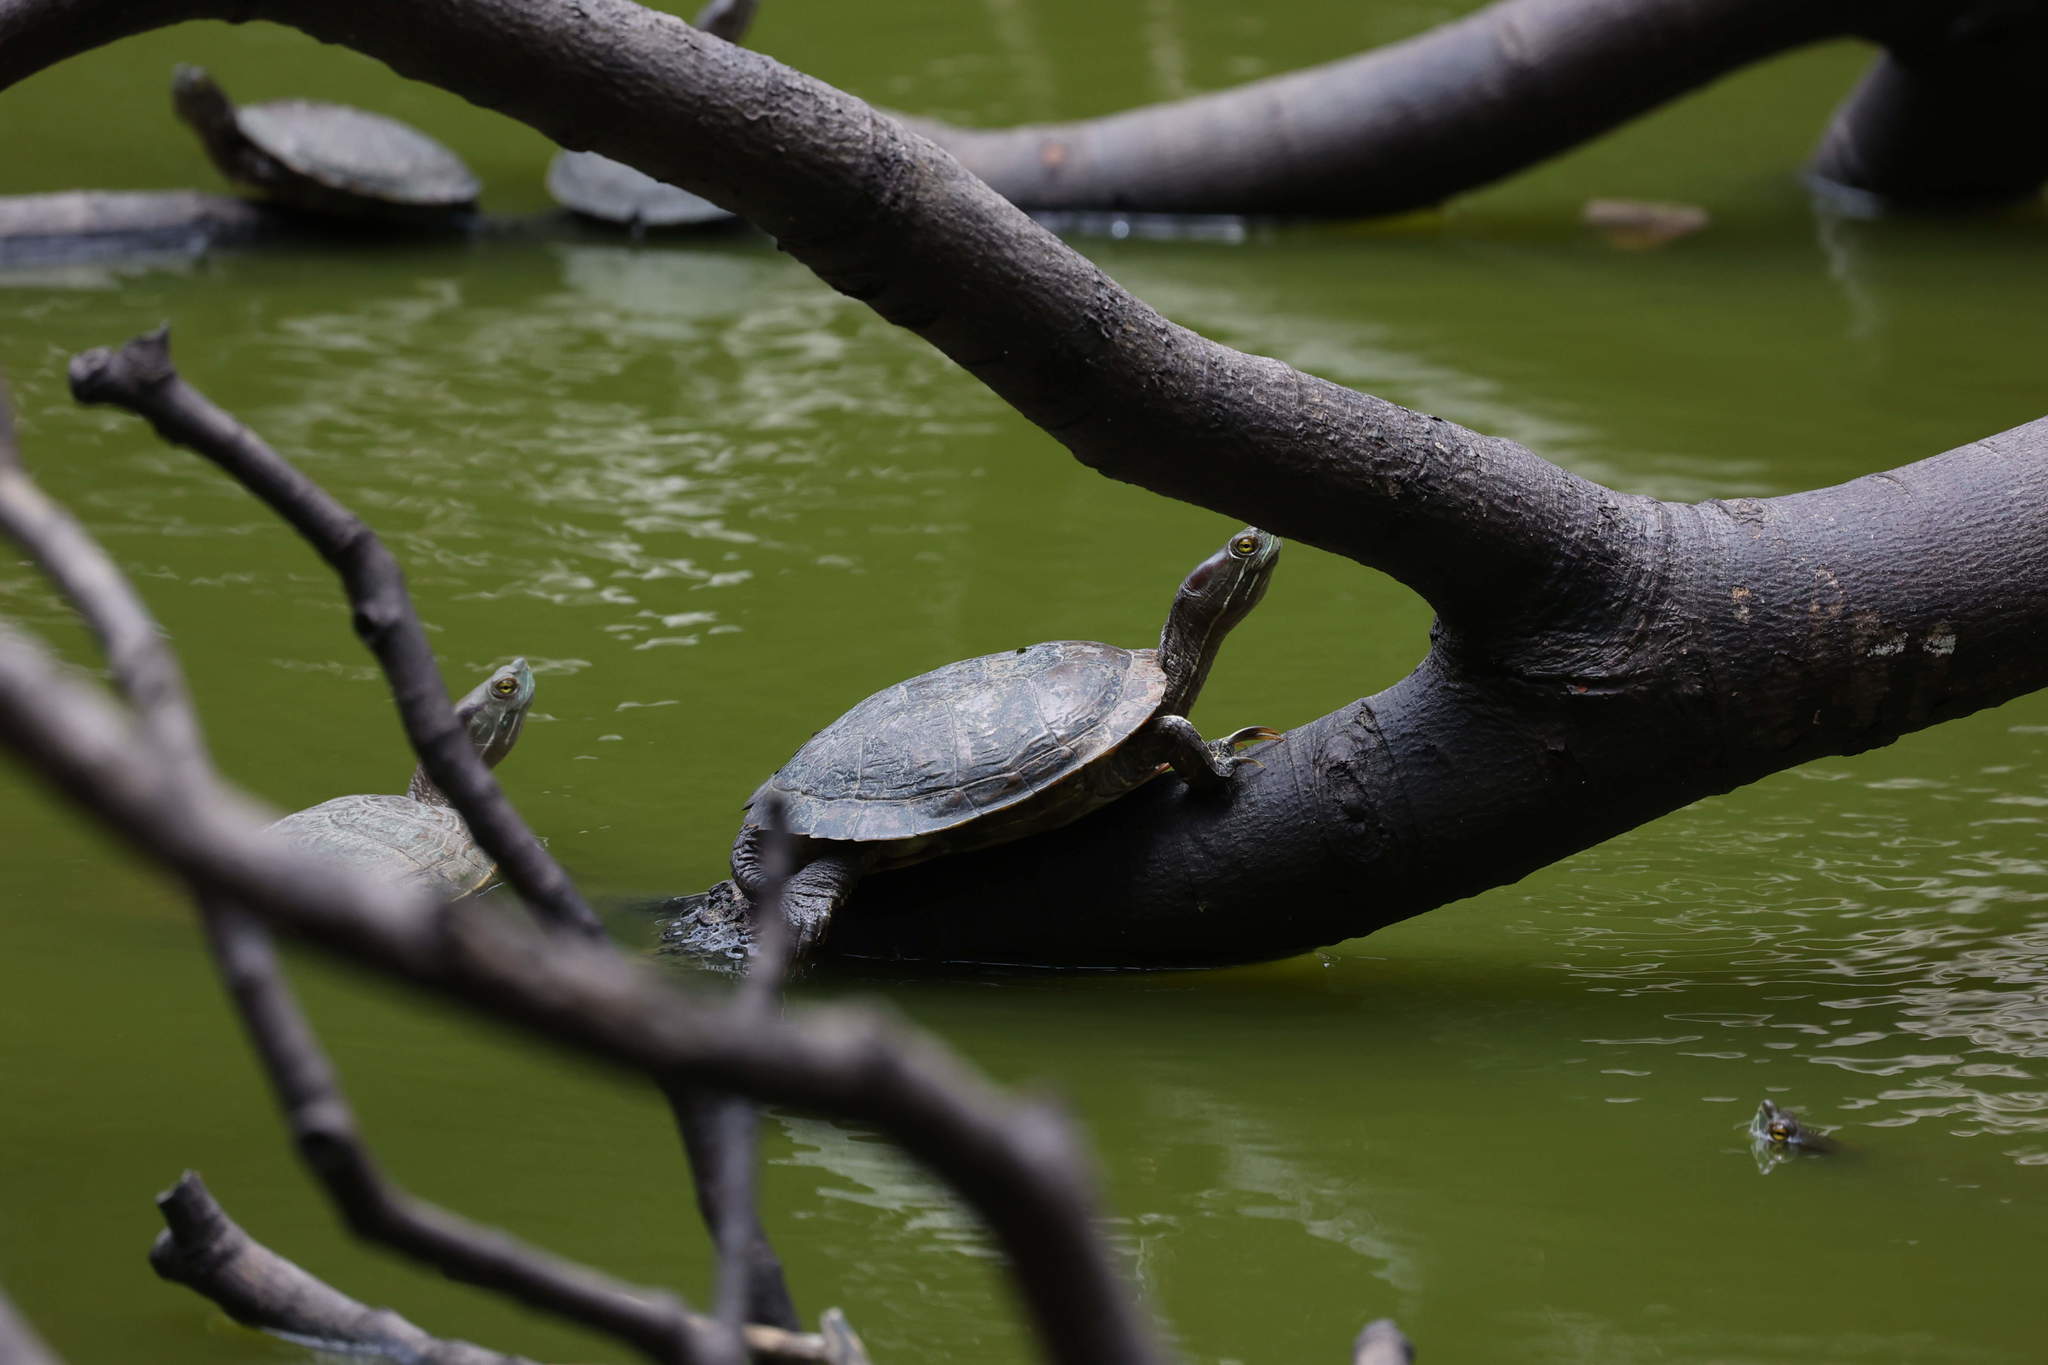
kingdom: Animalia
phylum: Chordata
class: Testudines
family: Emydidae
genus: Trachemys
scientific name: Trachemys stejnegeri
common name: Puerto rican slider
